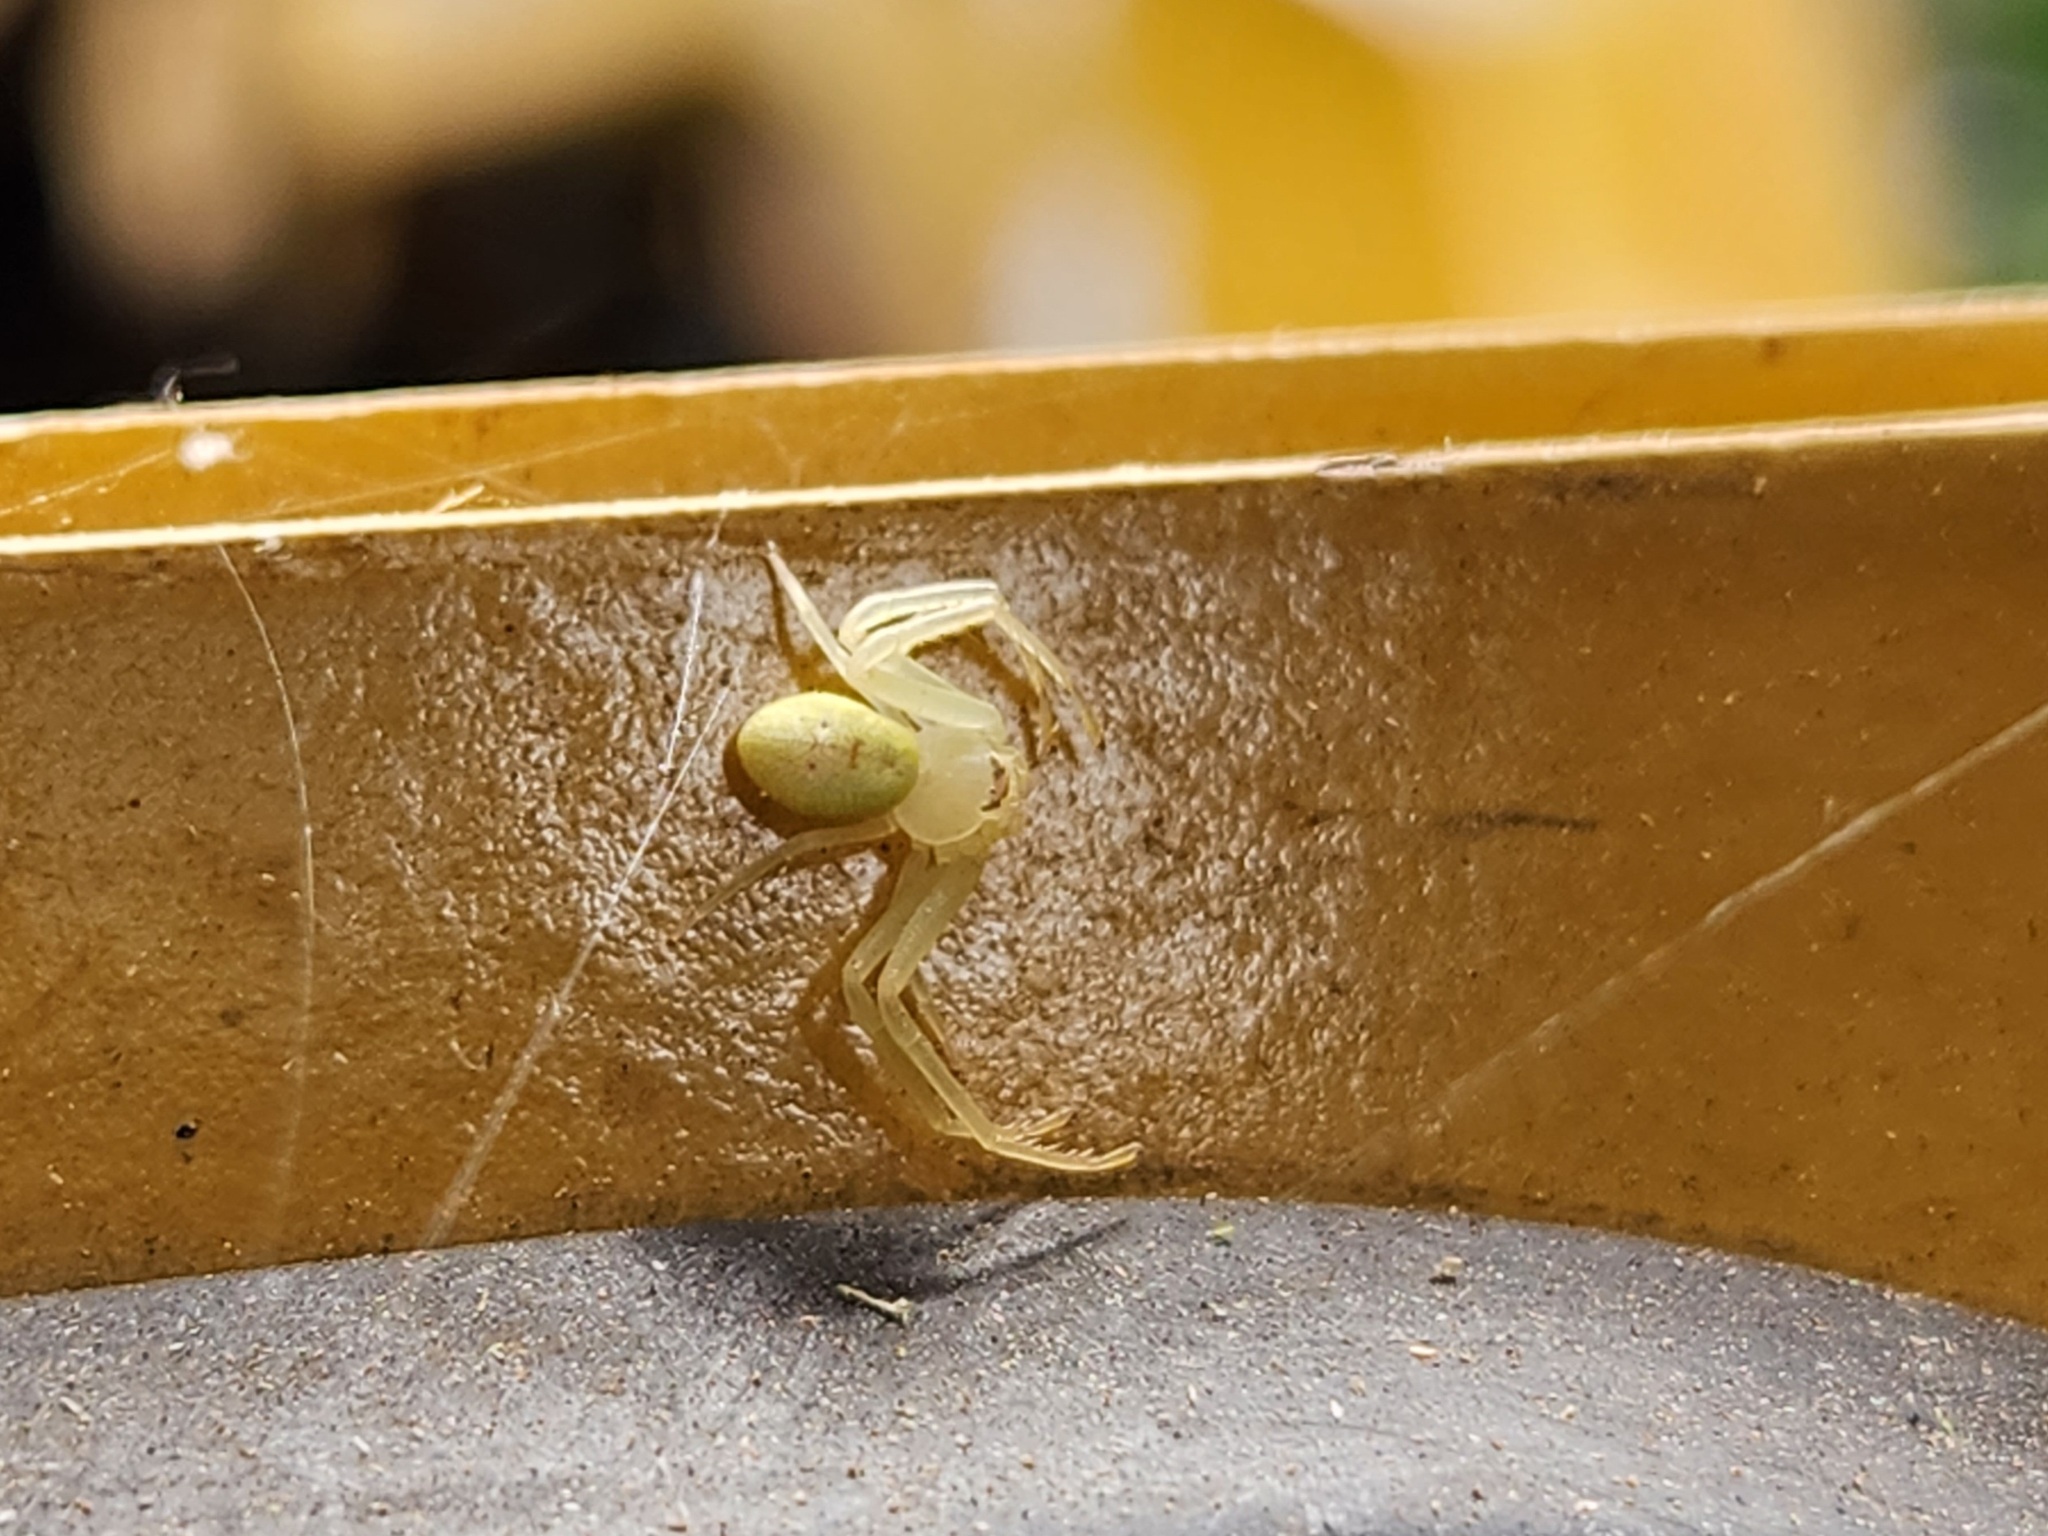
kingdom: Animalia
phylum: Arthropoda
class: Arachnida
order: Araneae
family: Thomisidae
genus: Misumessus
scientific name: Misumessus oblongus
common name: American green crab spider
